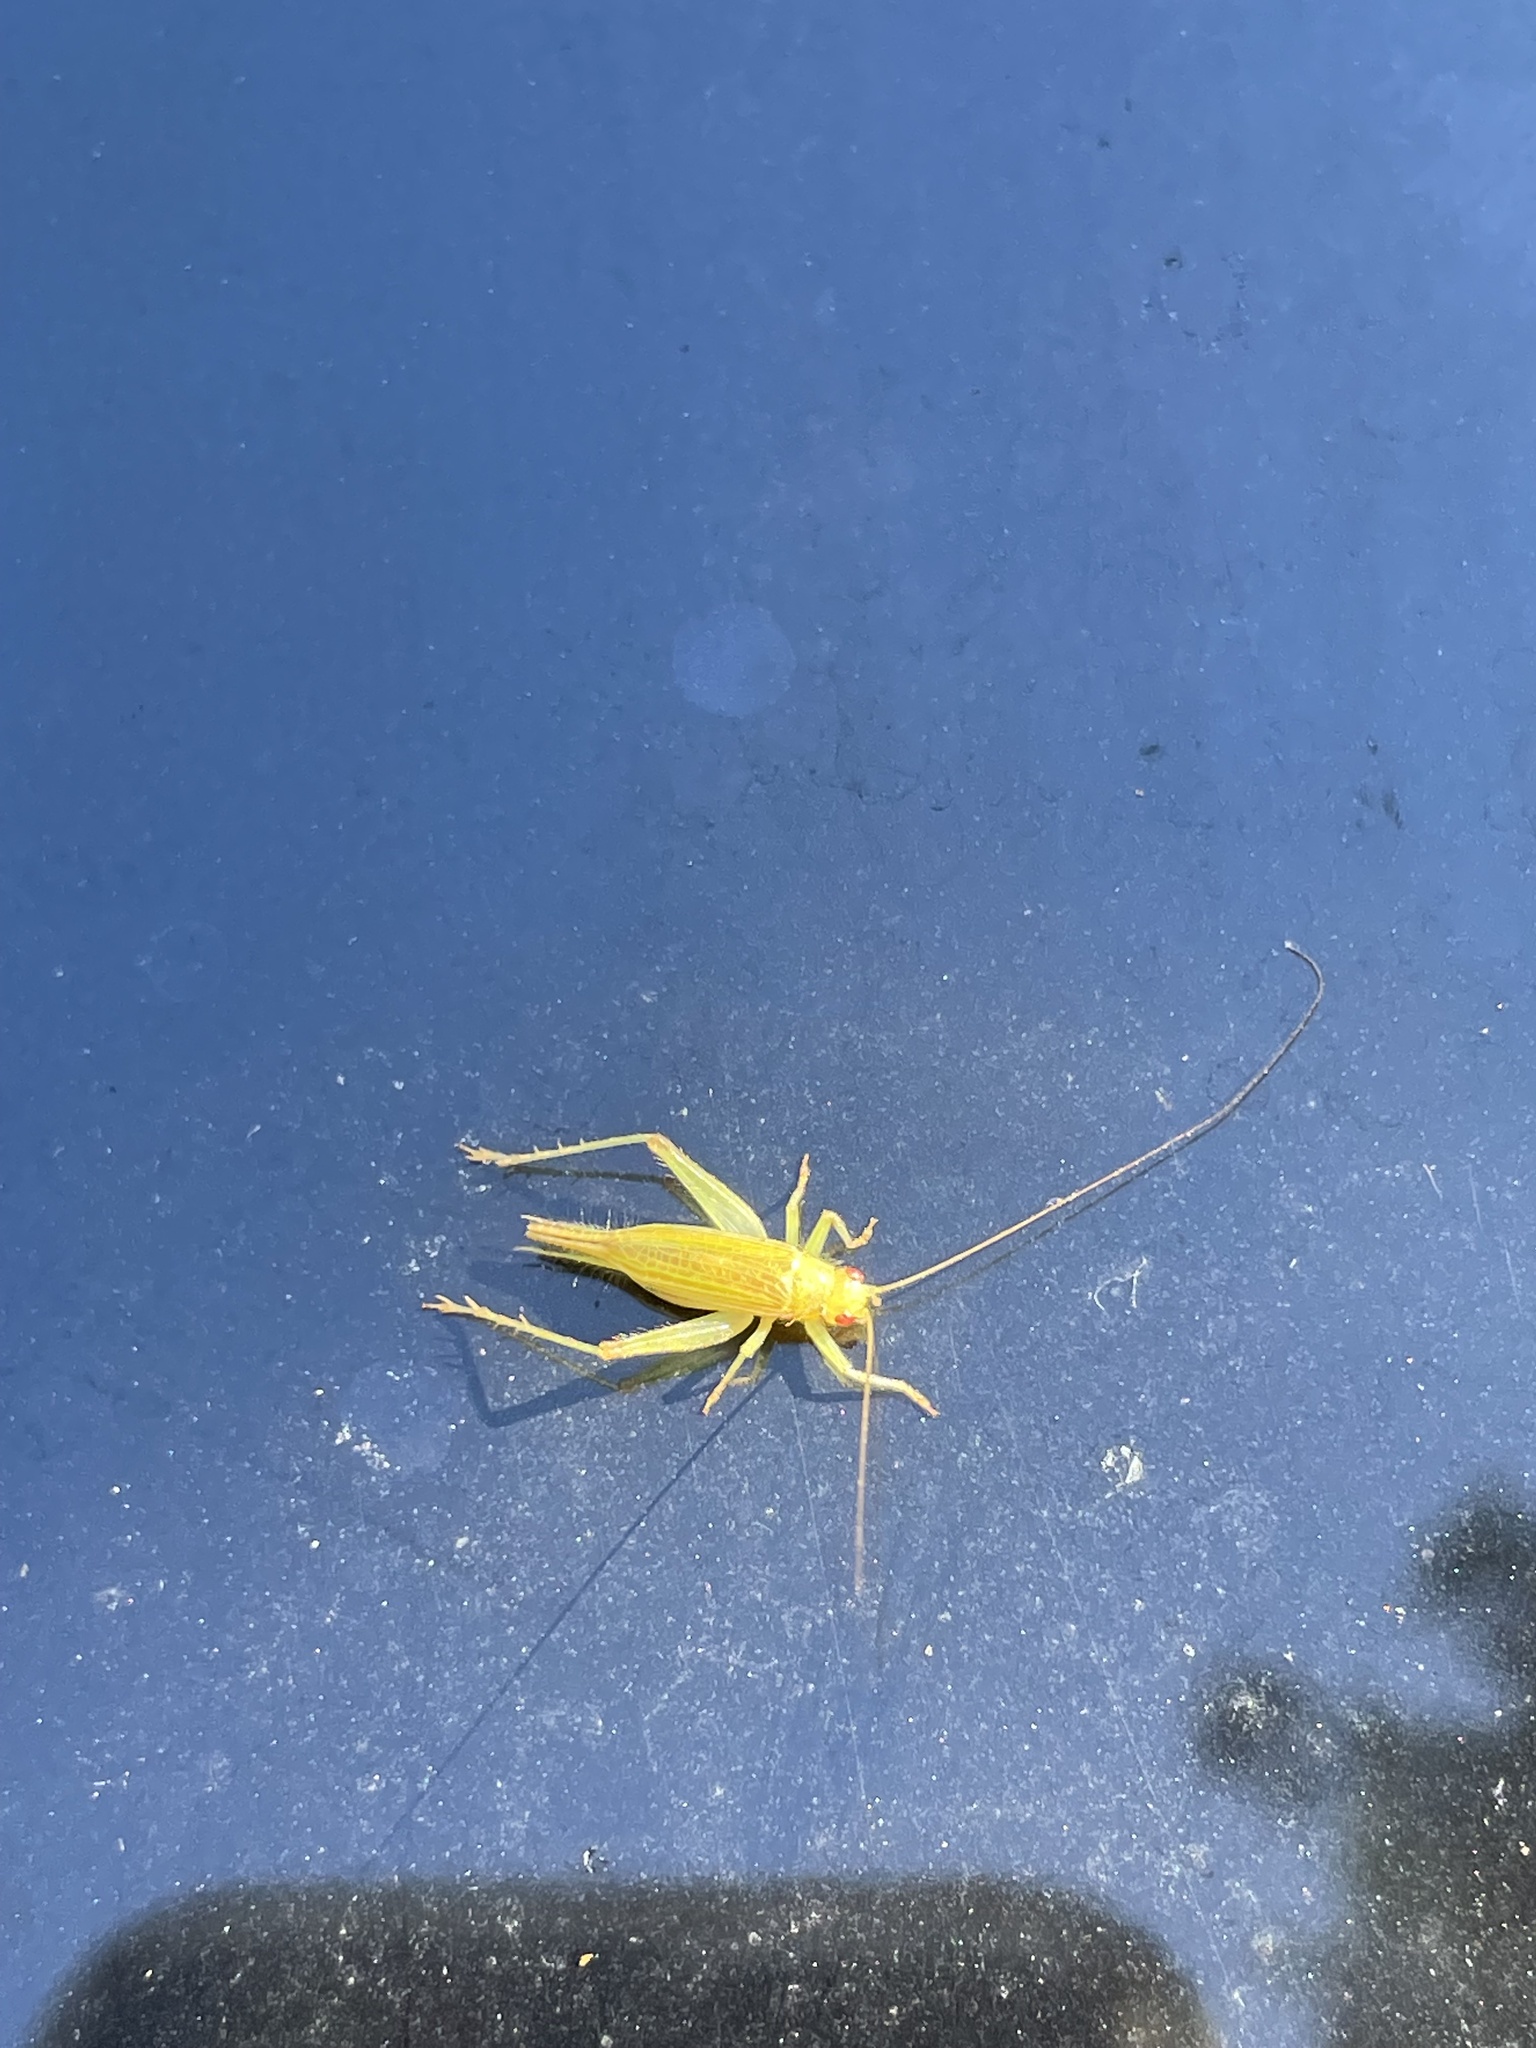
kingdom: Animalia
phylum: Arthropoda
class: Insecta
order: Orthoptera
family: Trigonidiidae
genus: Cyrtoxipha
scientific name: Cyrtoxipha columbiana
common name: Columbian trig
